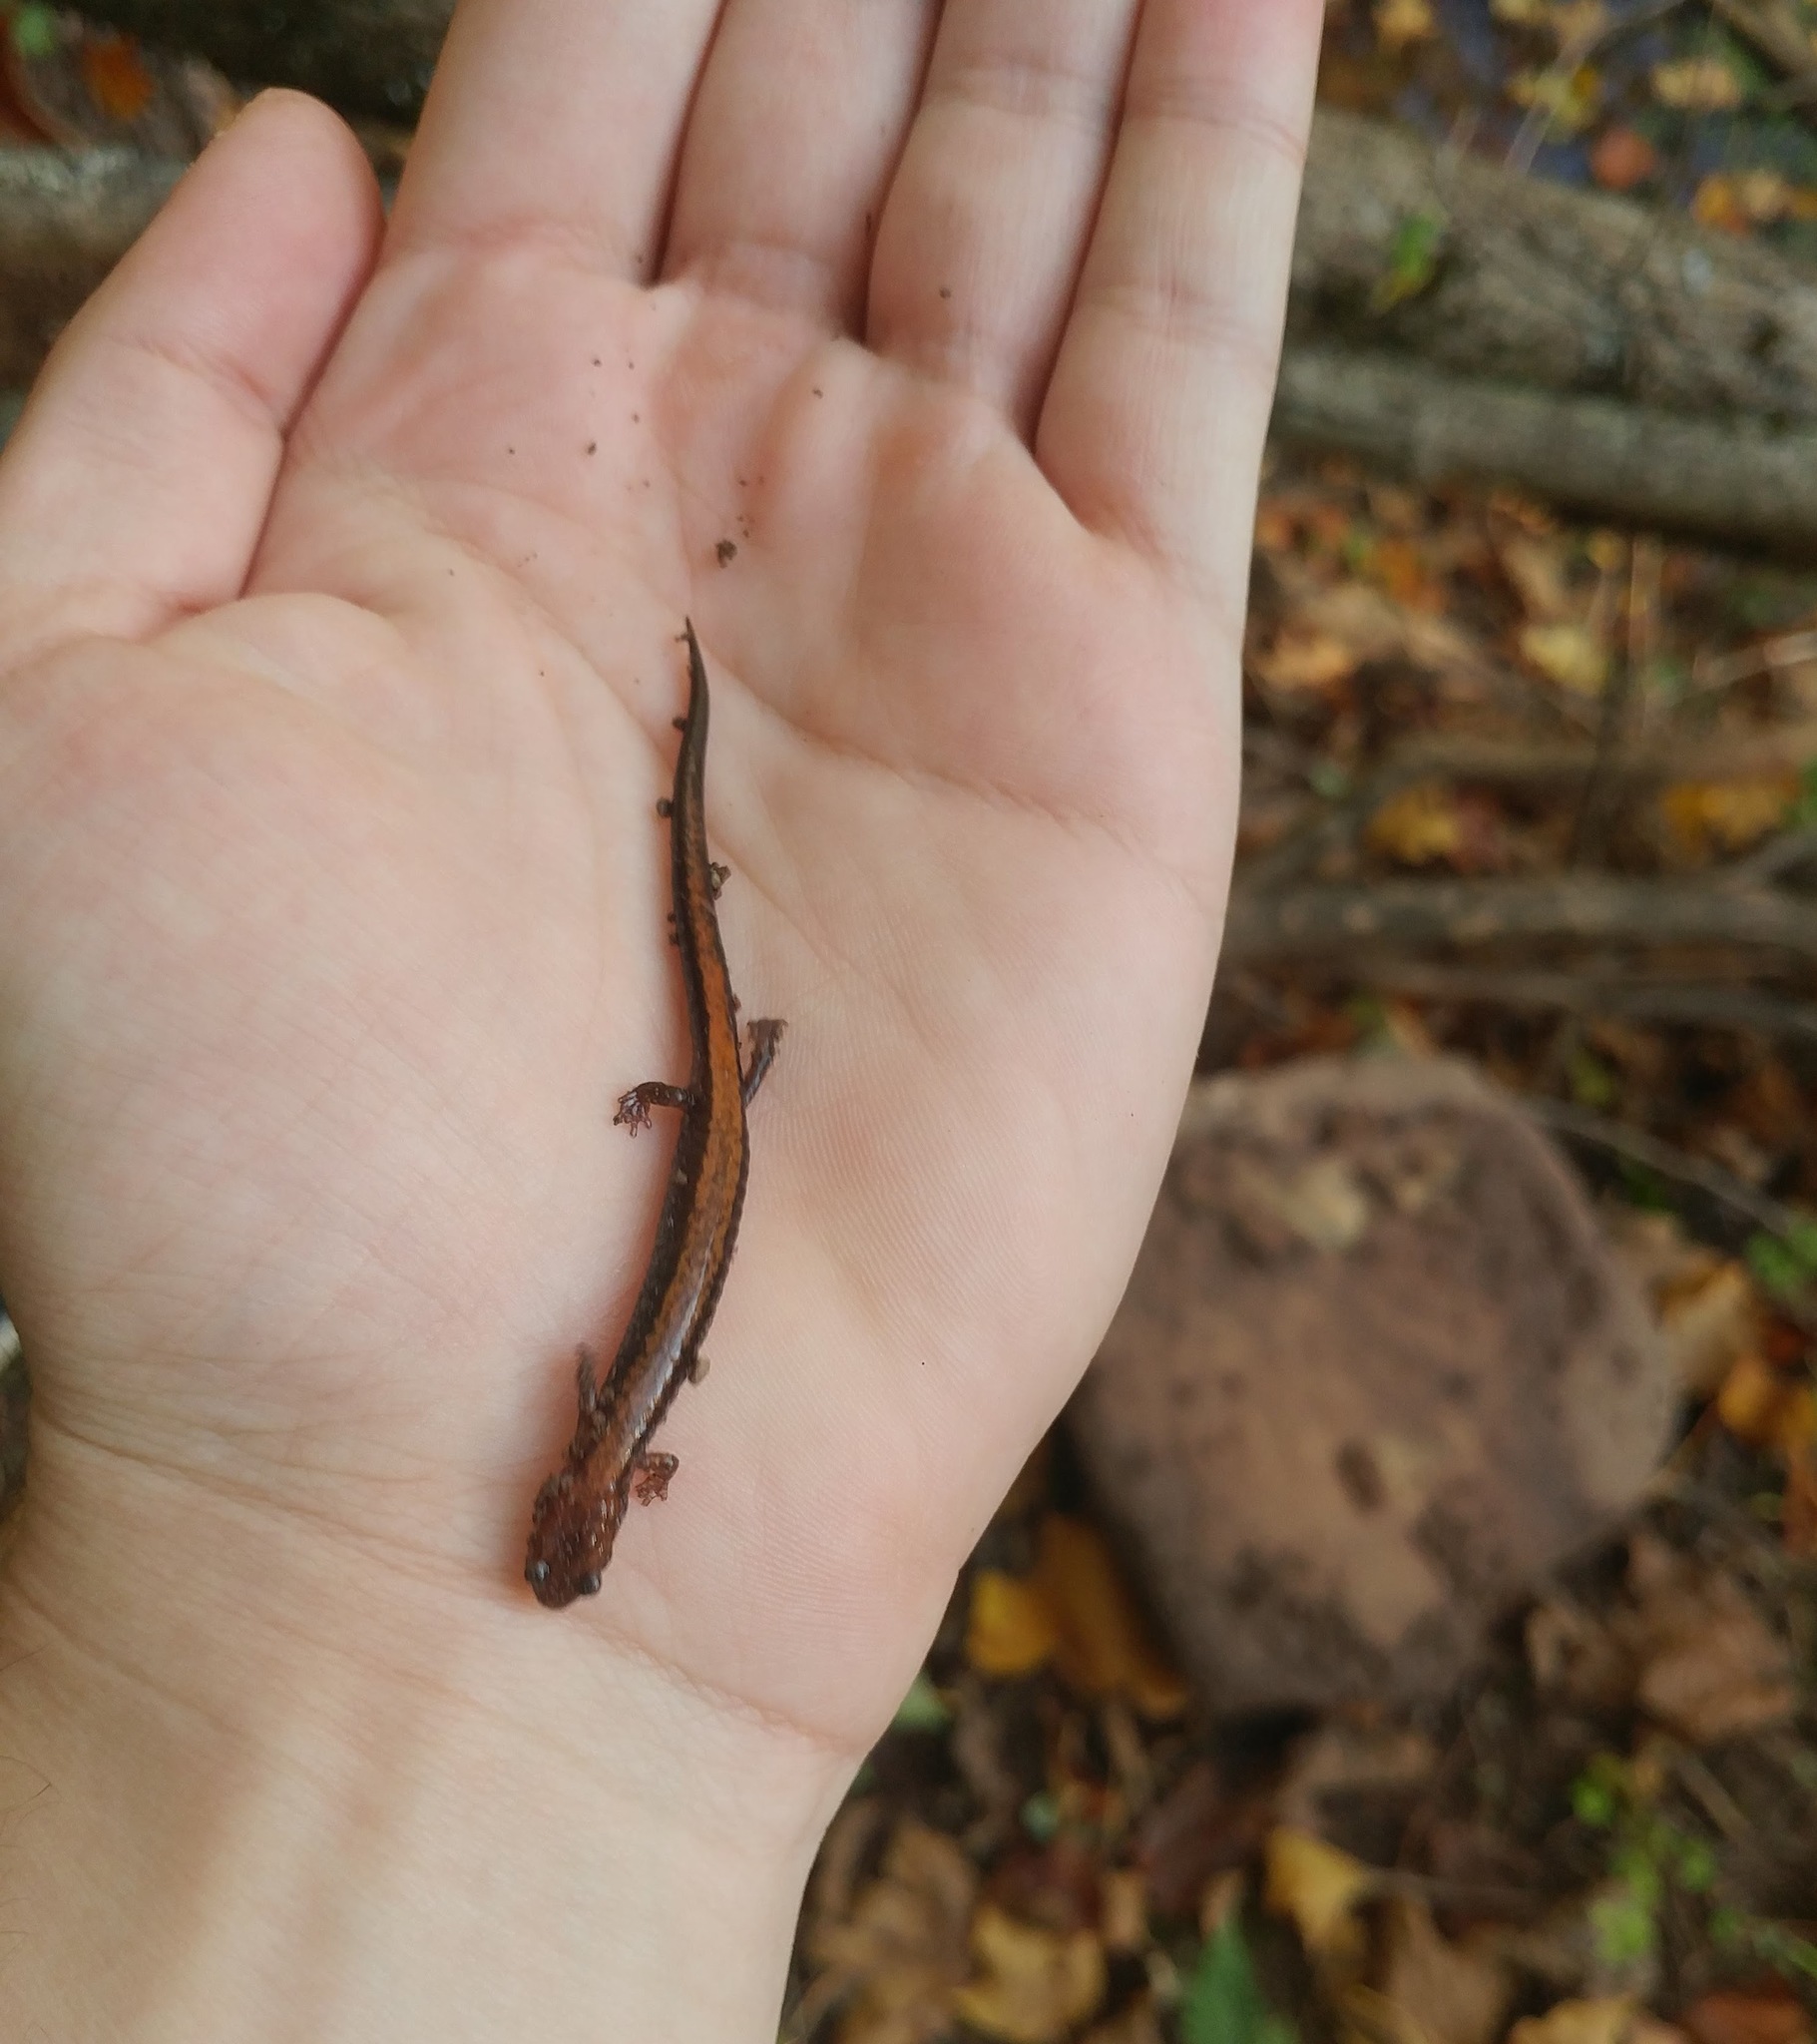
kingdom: Animalia
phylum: Chordata
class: Amphibia
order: Caudata
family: Plethodontidae
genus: Plethodon
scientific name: Plethodon cinereus
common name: Redback salamander
